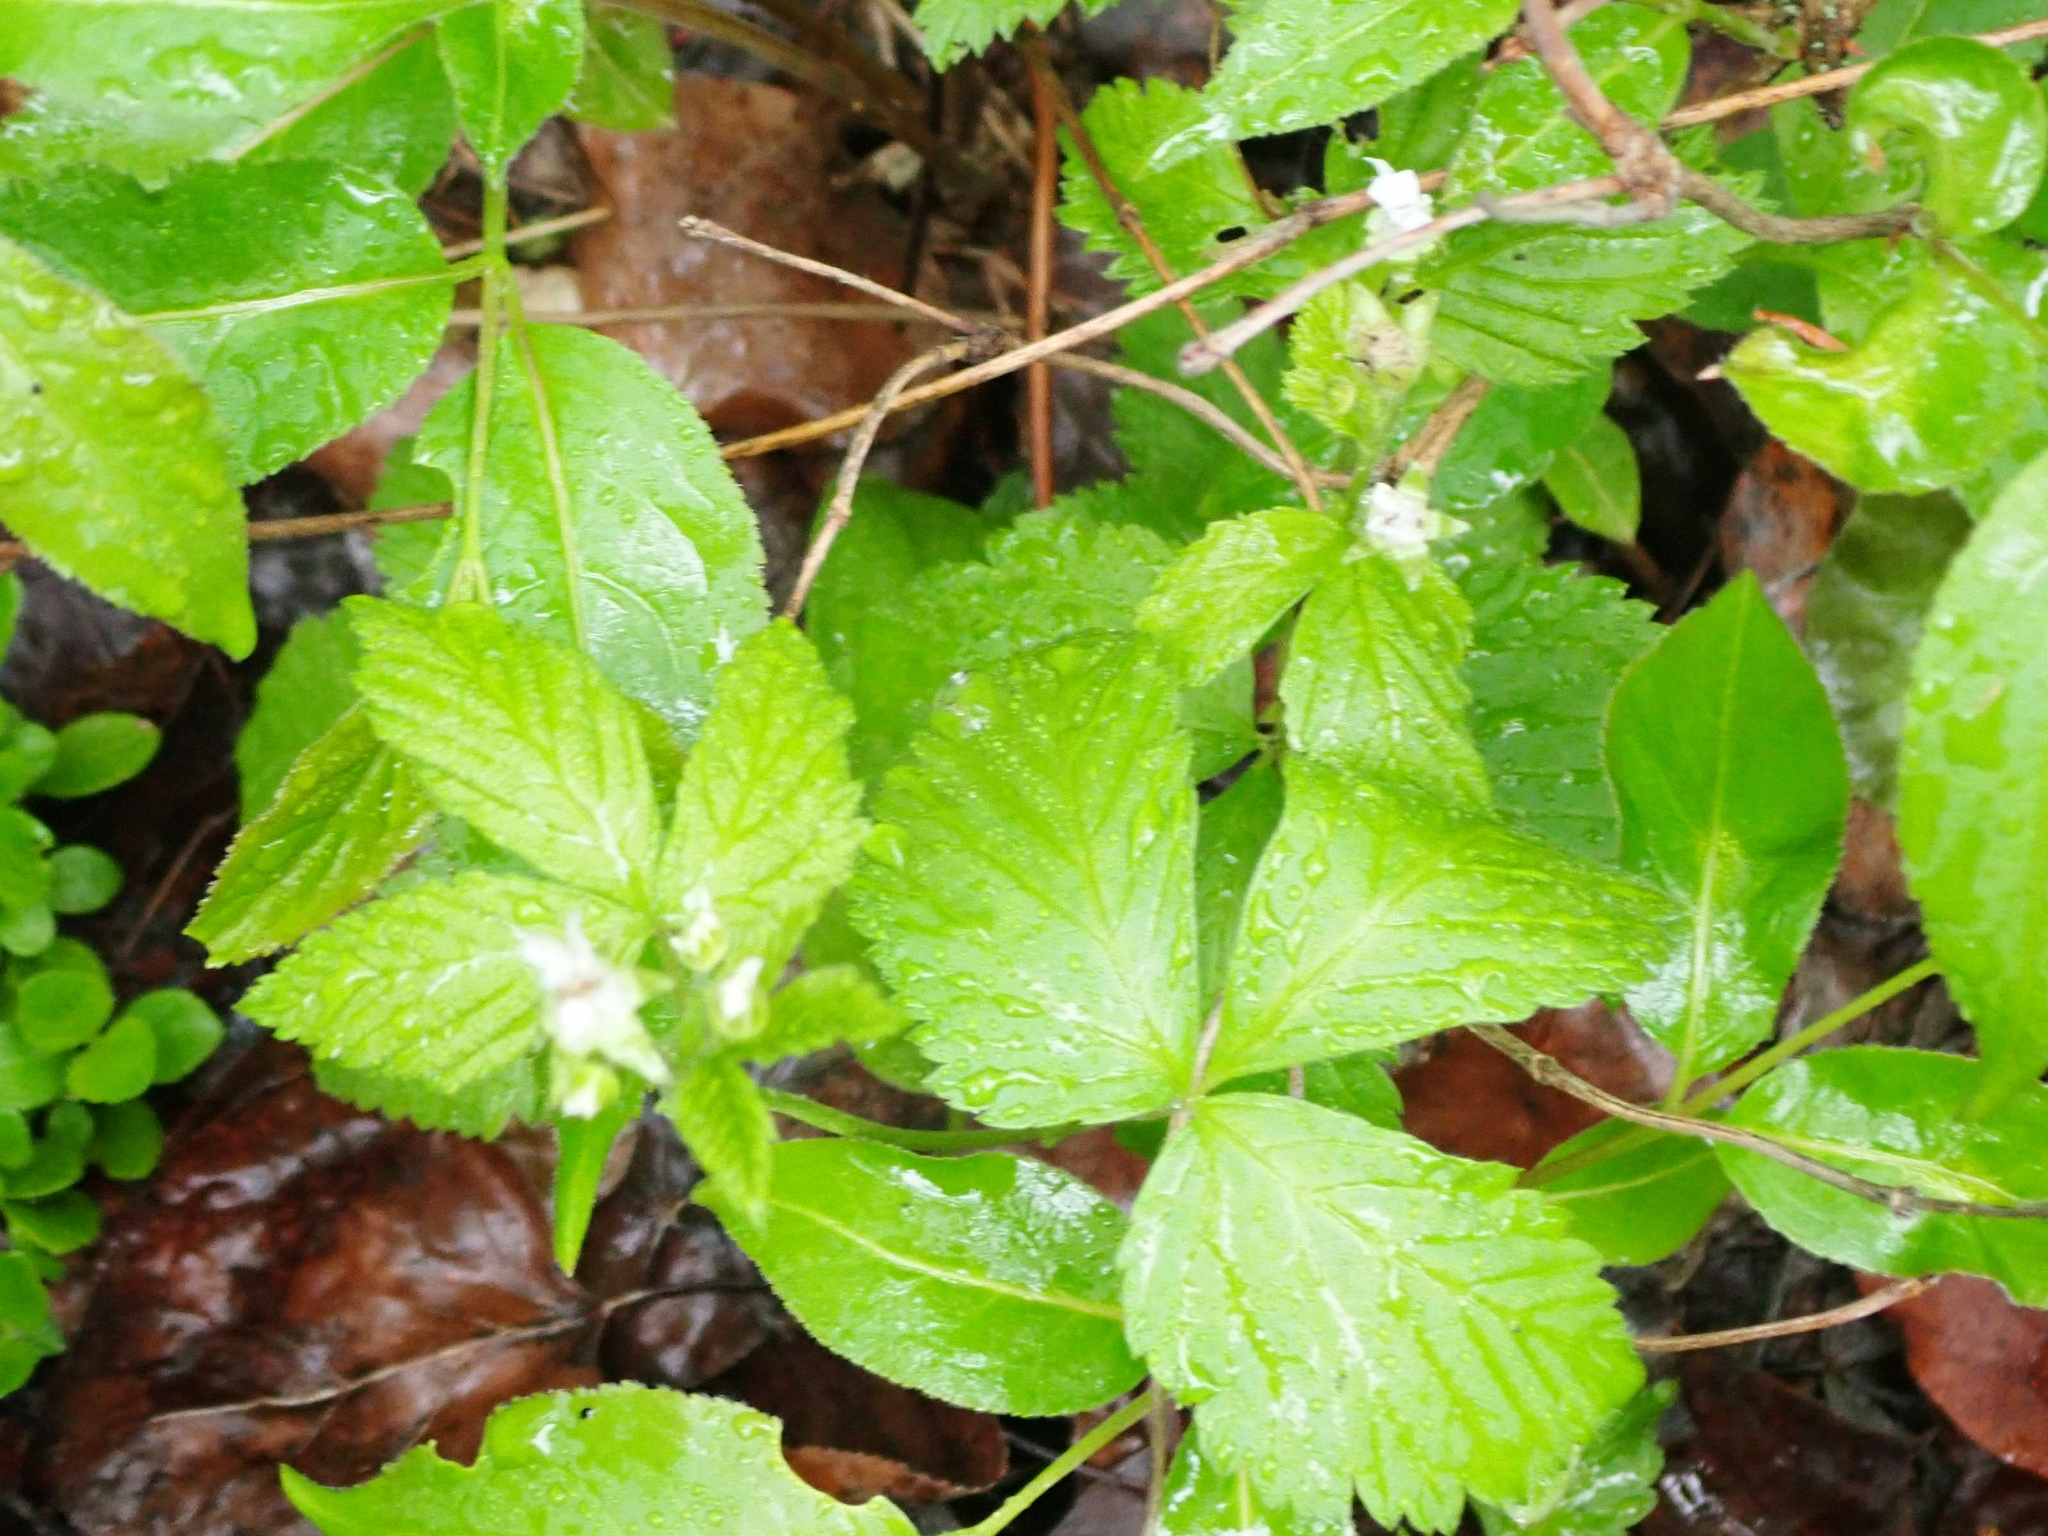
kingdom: Plantae
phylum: Tracheophyta
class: Magnoliopsida
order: Rosales
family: Rosaceae
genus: Rubus
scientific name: Rubus pubescens
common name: Dwarf raspberry
